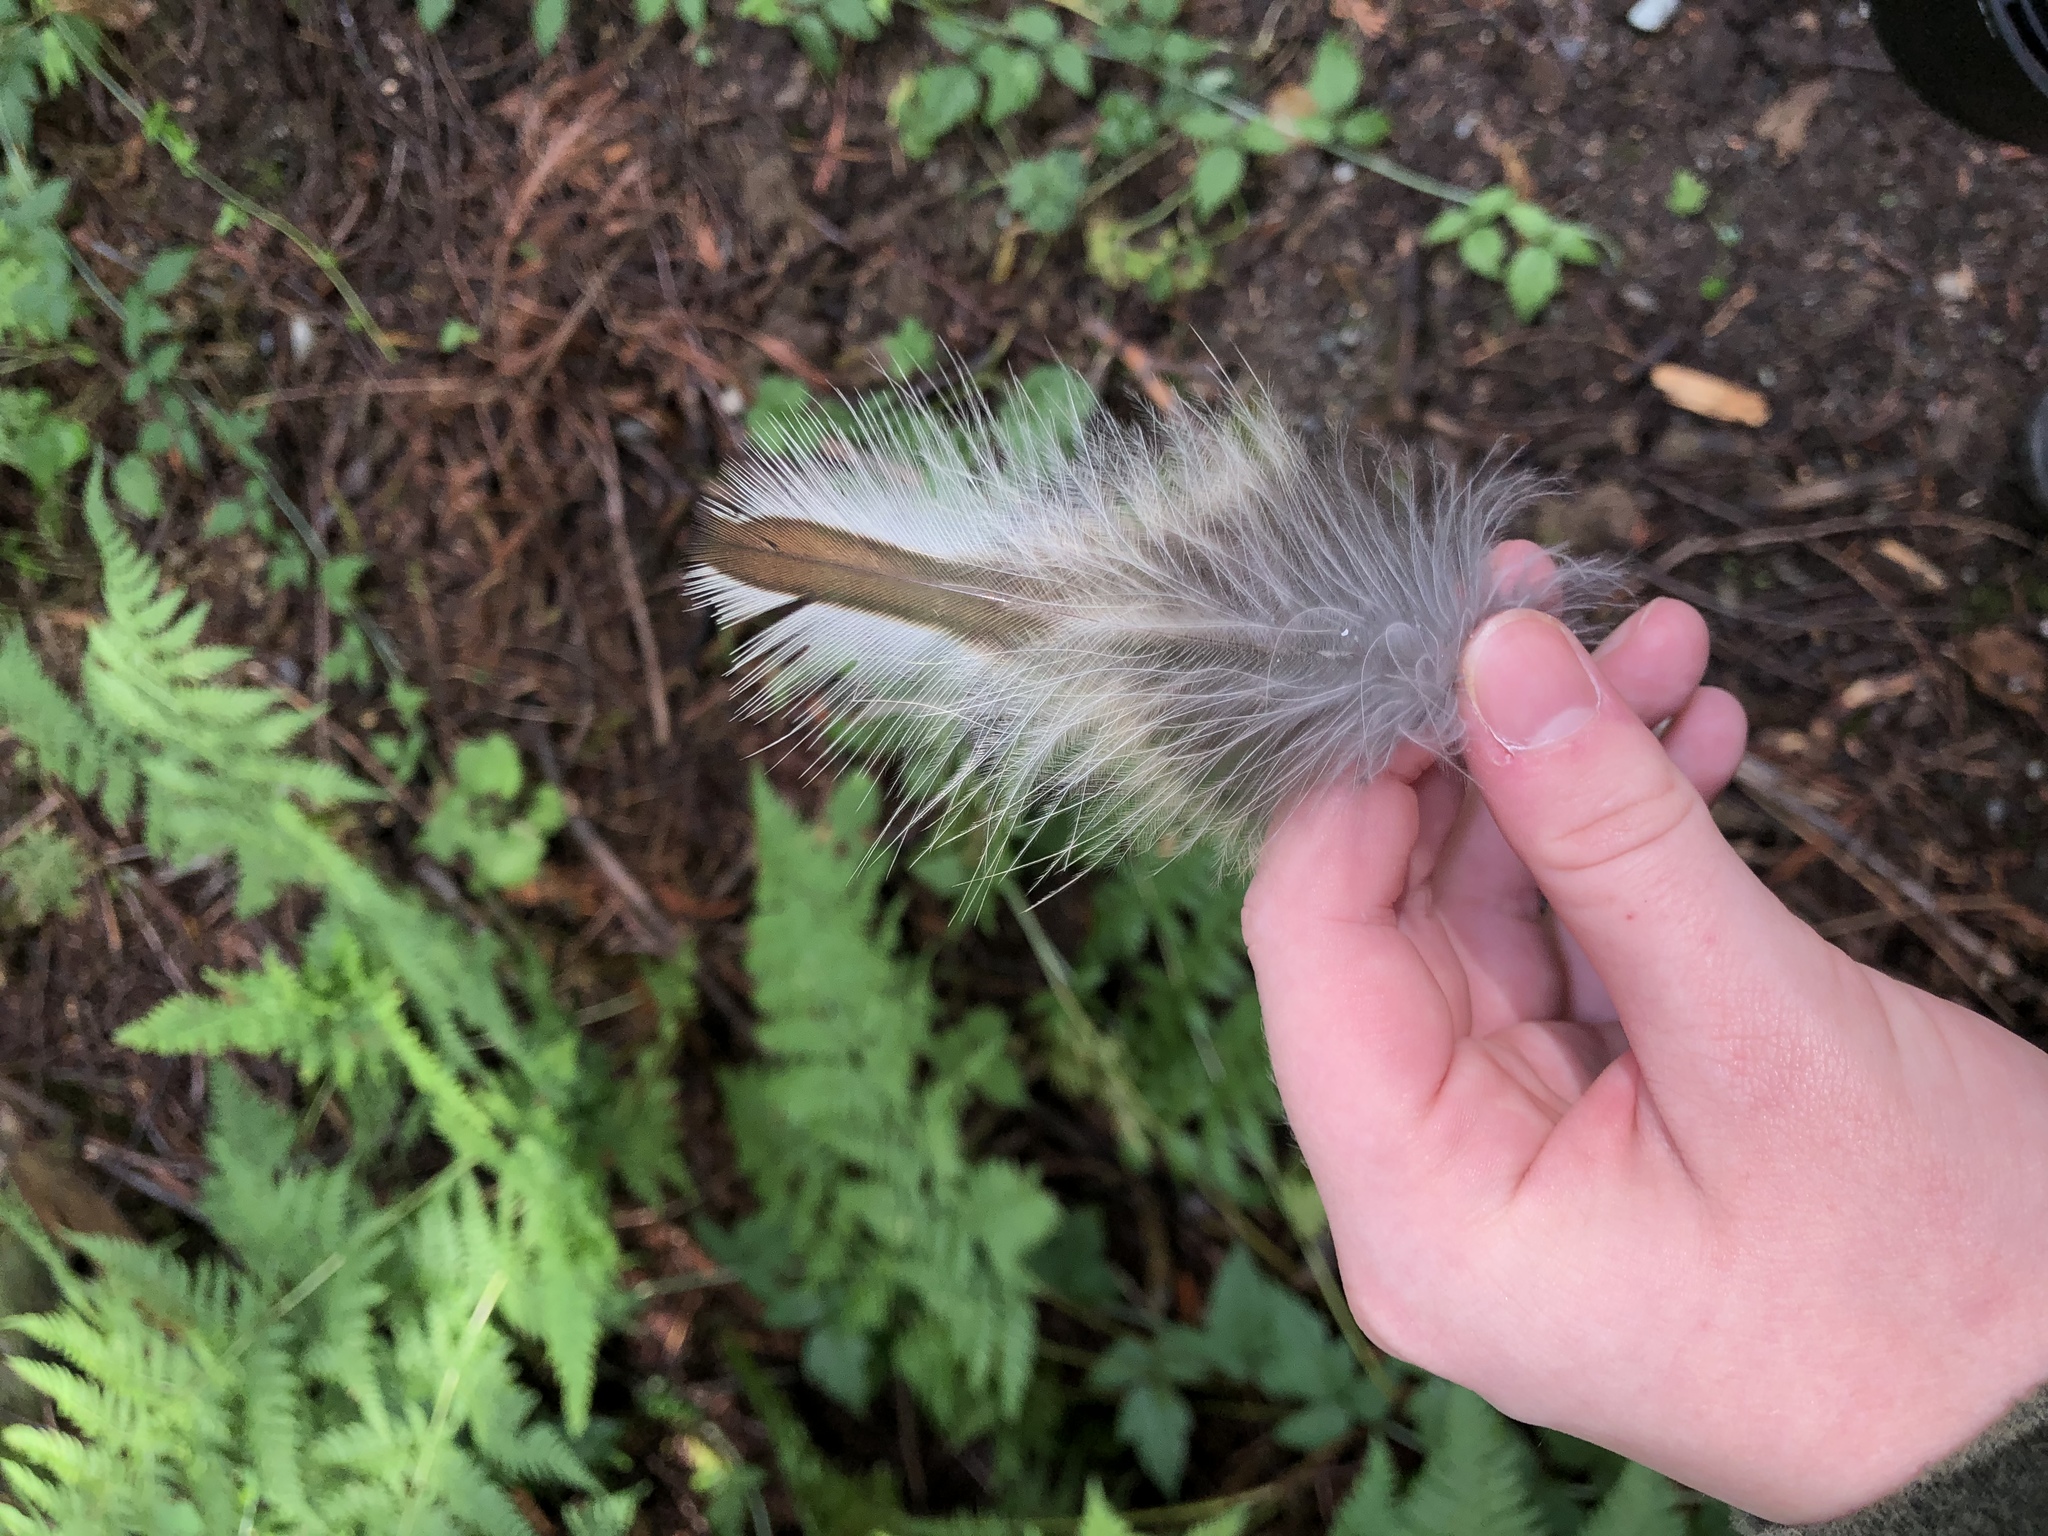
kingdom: Animalia
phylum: Chordata
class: Aves
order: Strigiformes
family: Strigidae
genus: Strix
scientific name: Strix varia
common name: Barred owl
